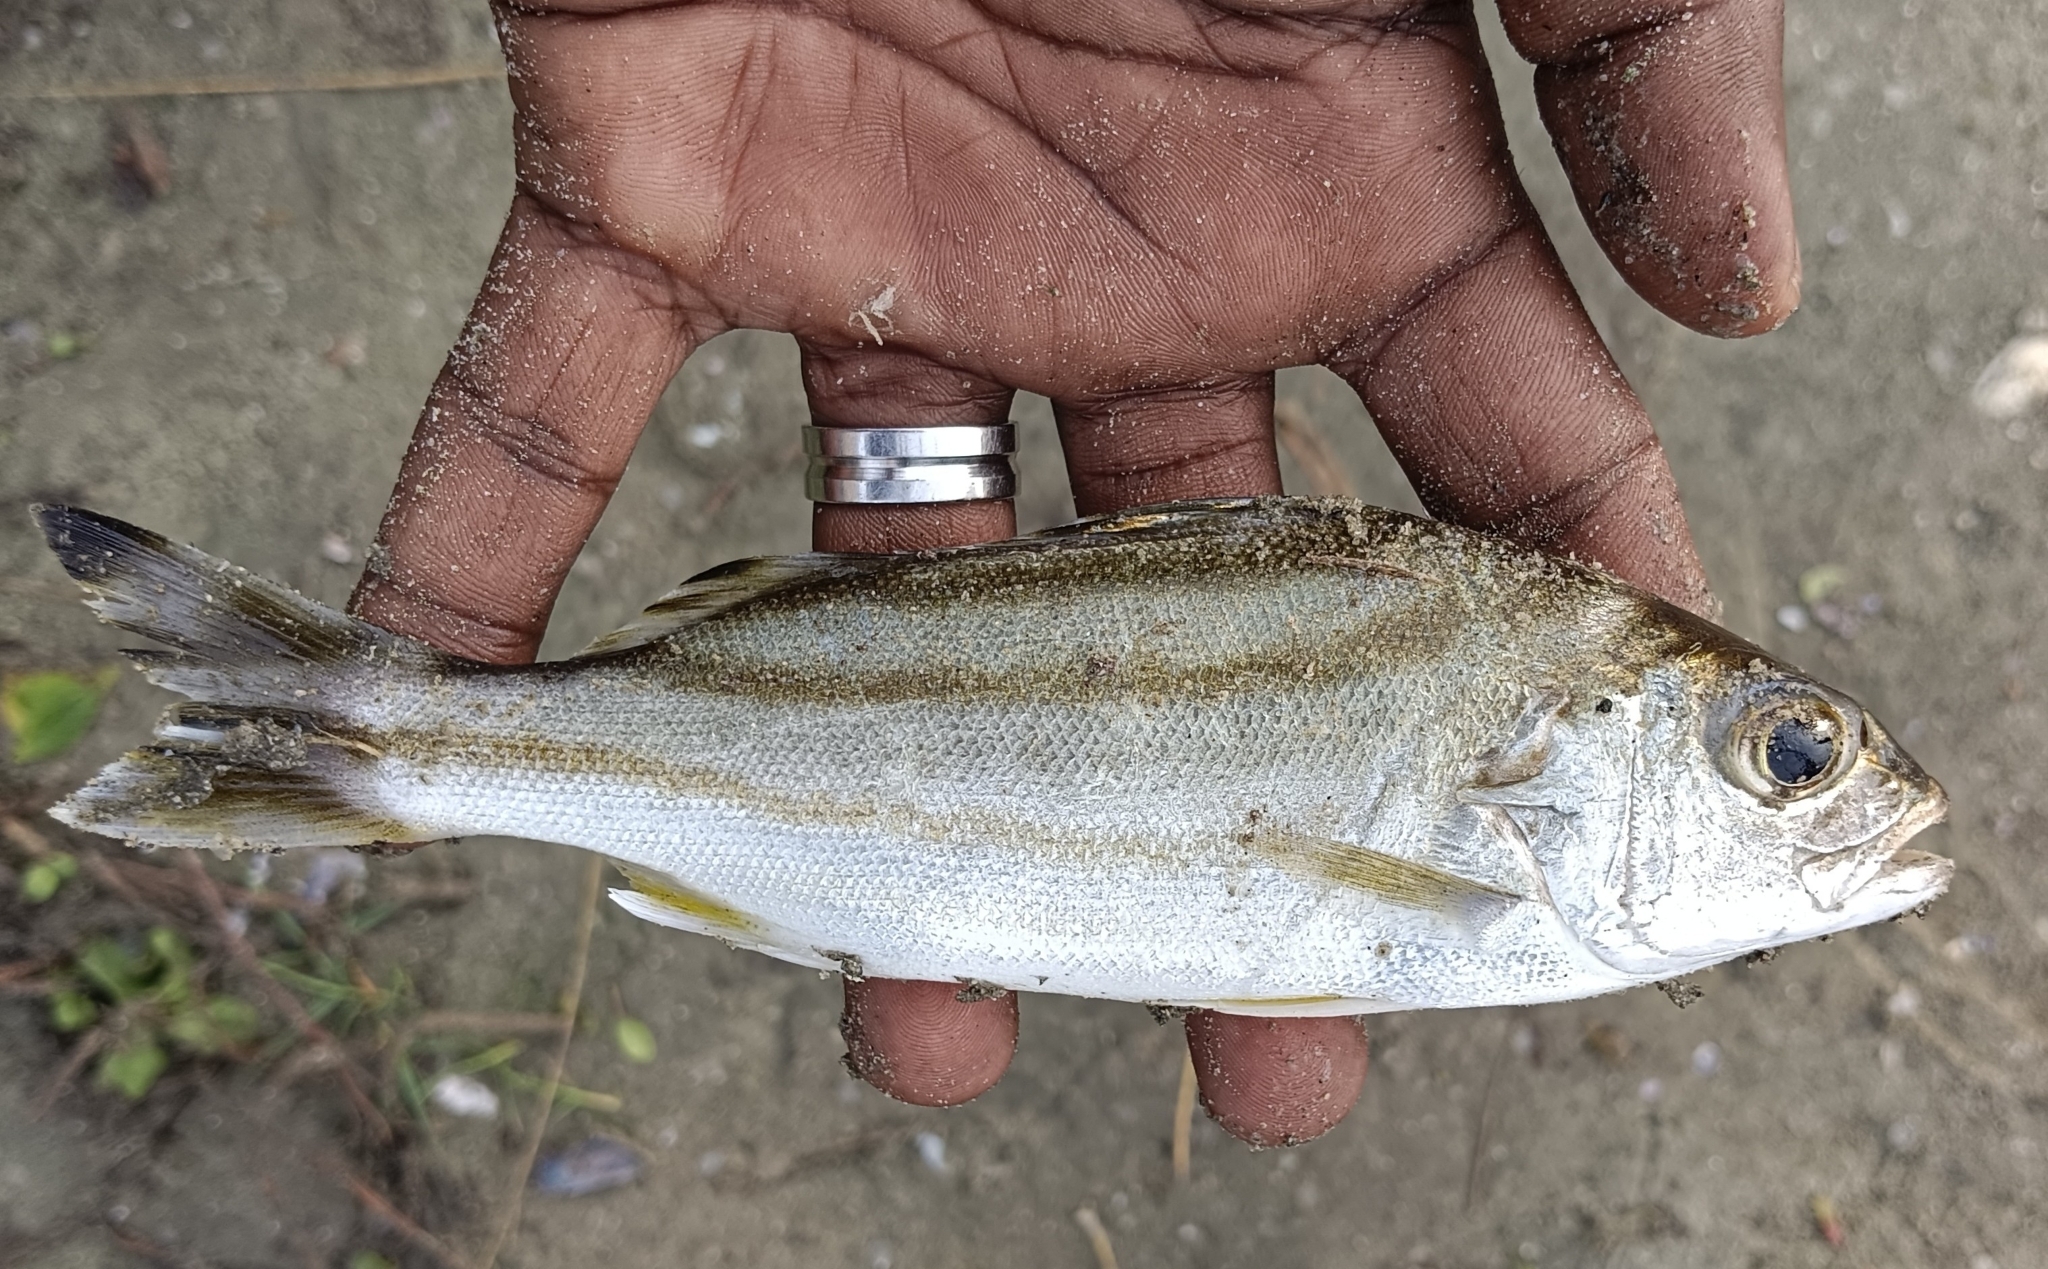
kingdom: Animalia
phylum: Chordata
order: Perciformes
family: Terapontidae
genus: Terapon
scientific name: Terapon jarbua
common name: Jarbua terapon
